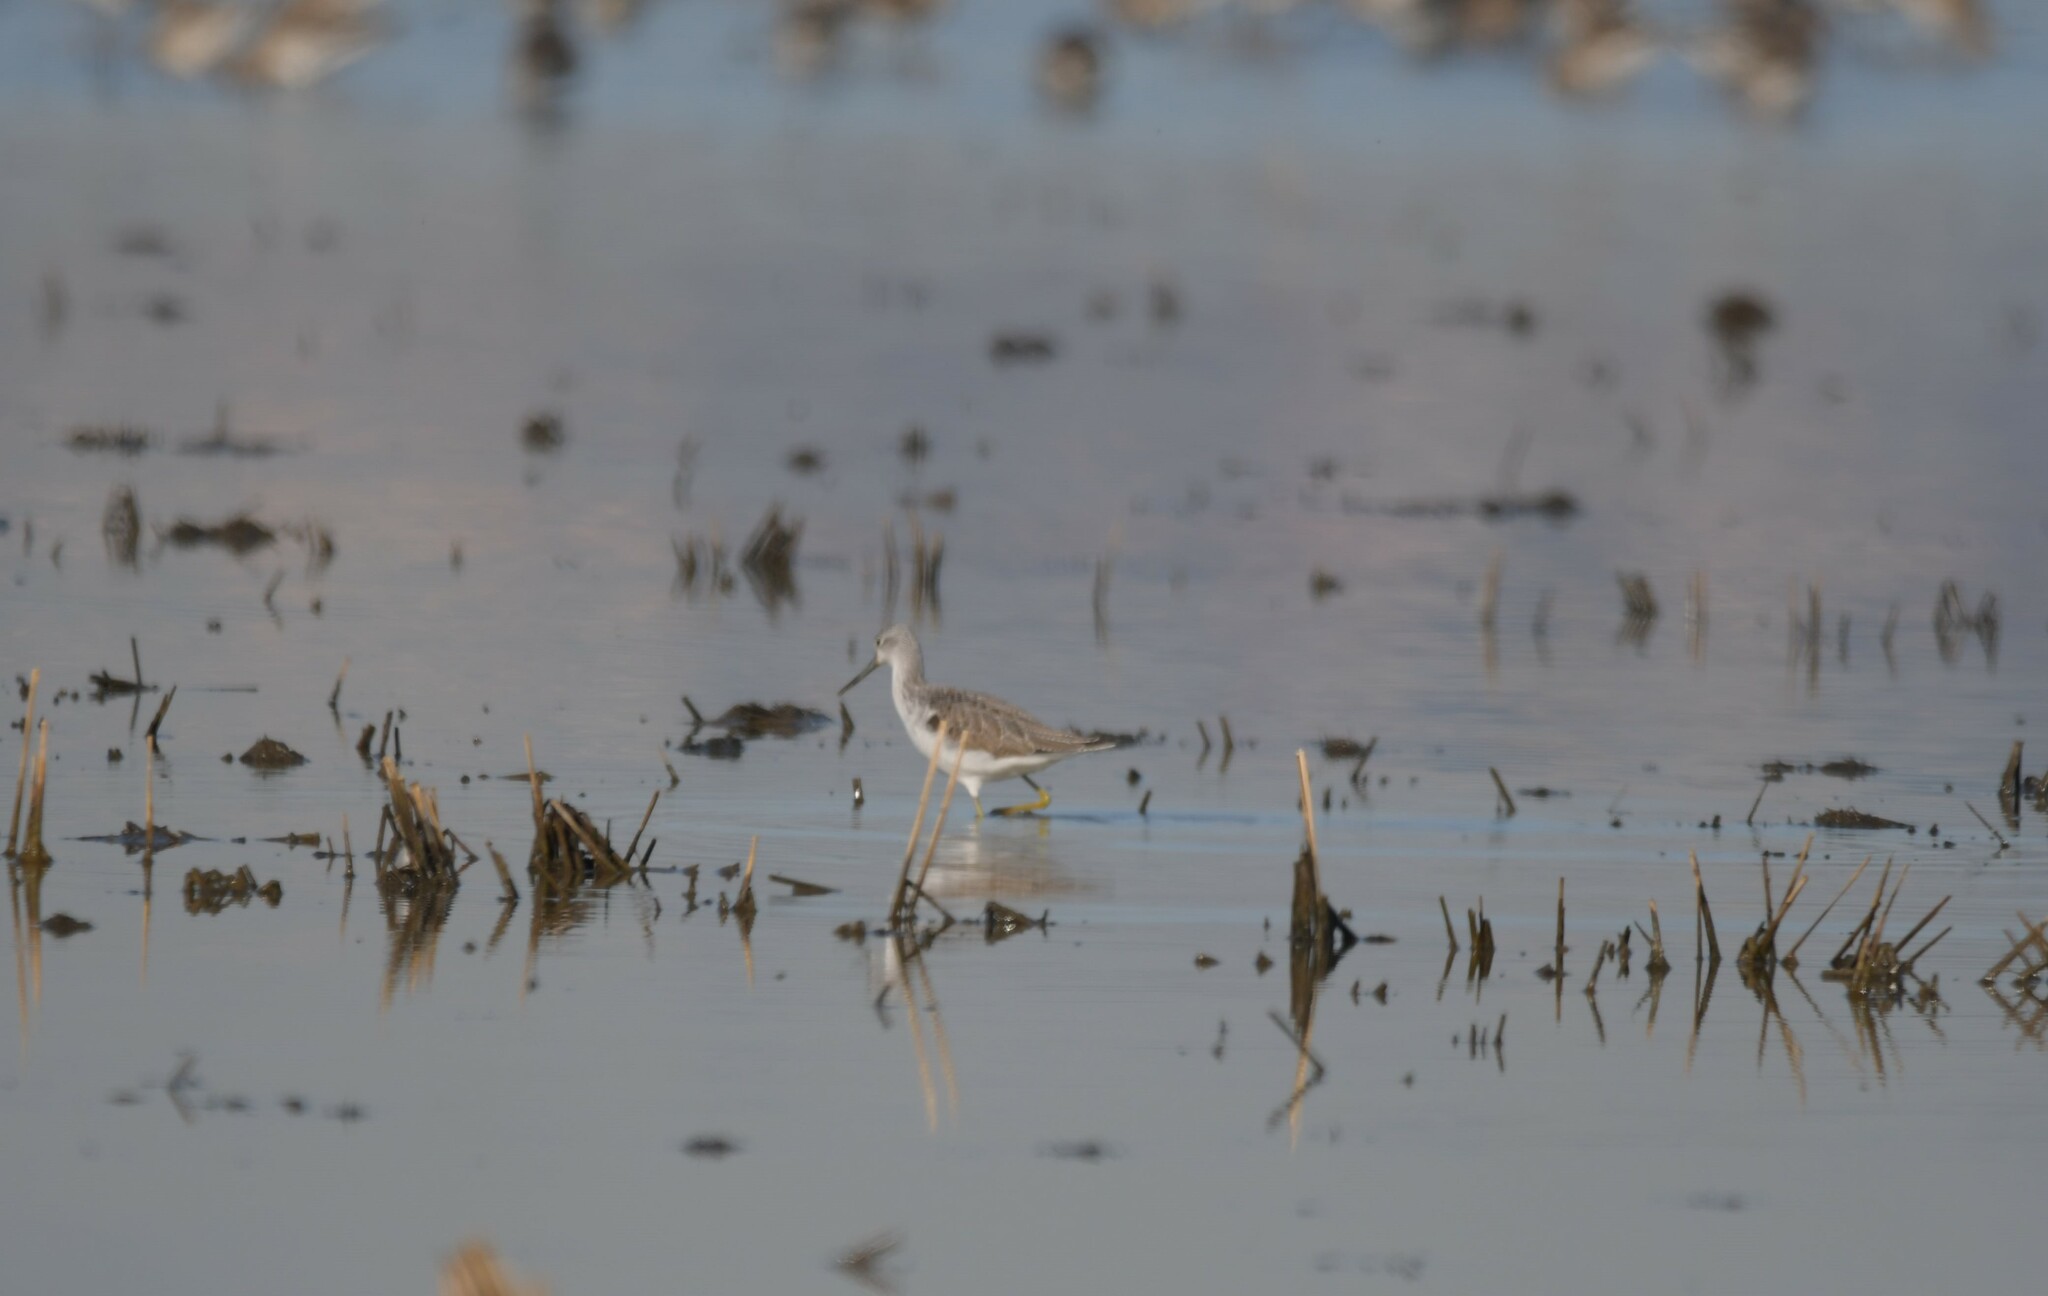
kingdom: Animalia
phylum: Chordata
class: Aves
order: Charadriiformes
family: Scolopacidae
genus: Tringa
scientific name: Tringa nebularia
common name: Common greenshank
